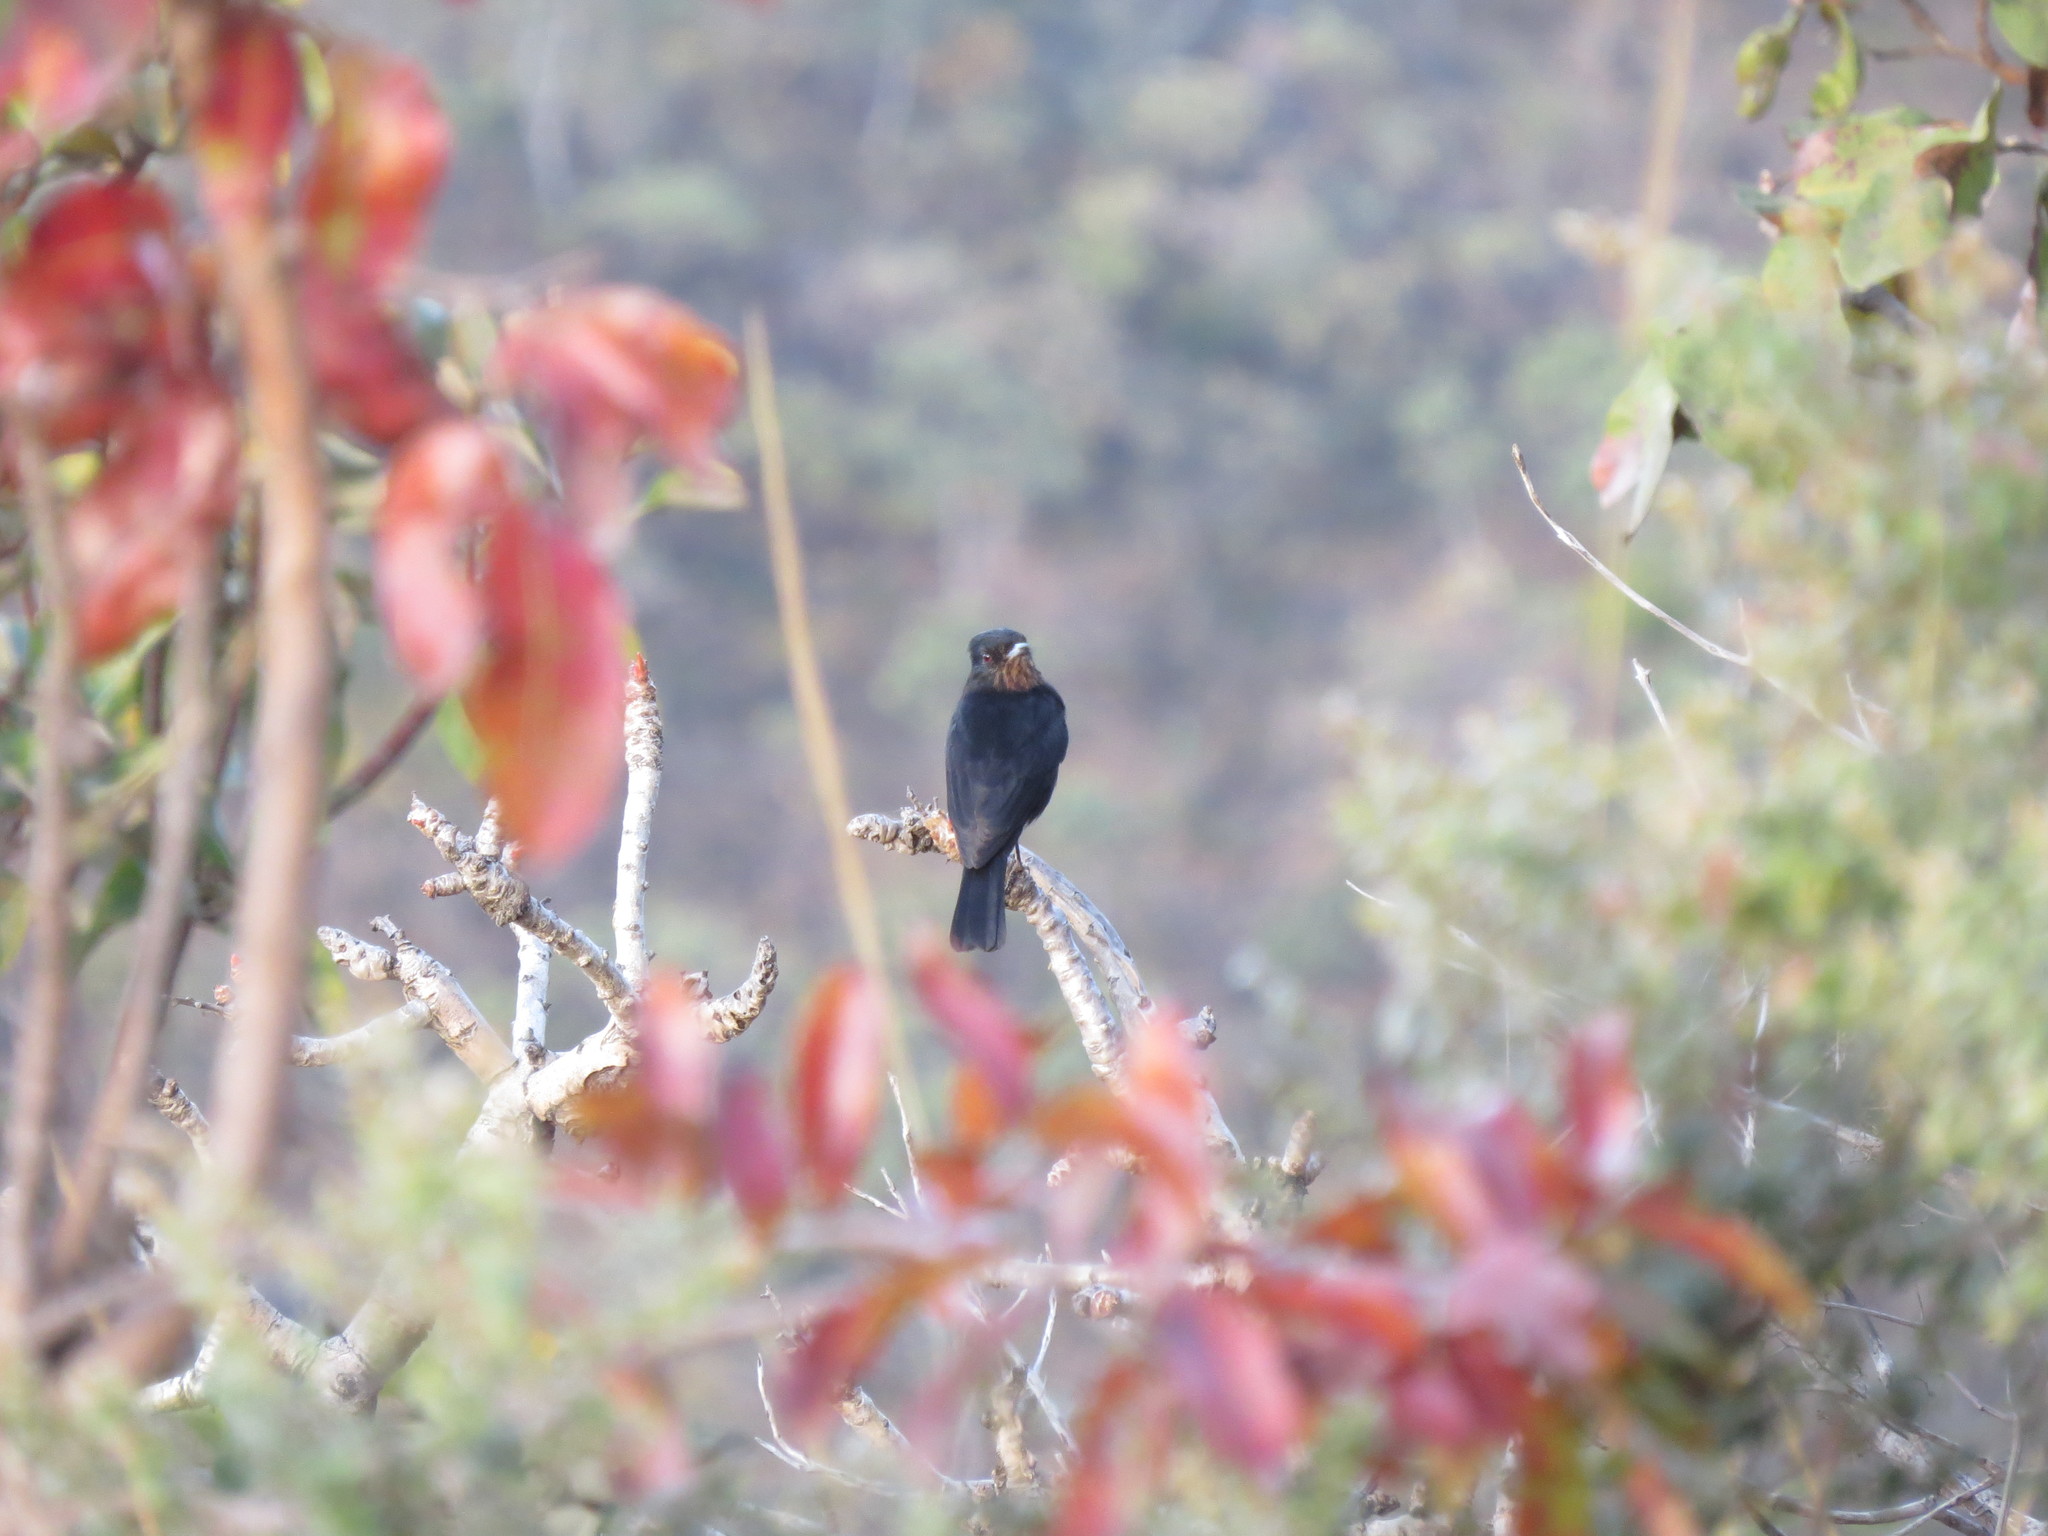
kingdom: Animalia
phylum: Chordata
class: Aves
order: Passeriformes
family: Tyrannidae
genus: Knipolegus
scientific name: Knipolegus nigerrimus
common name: Velvety black tyrant
